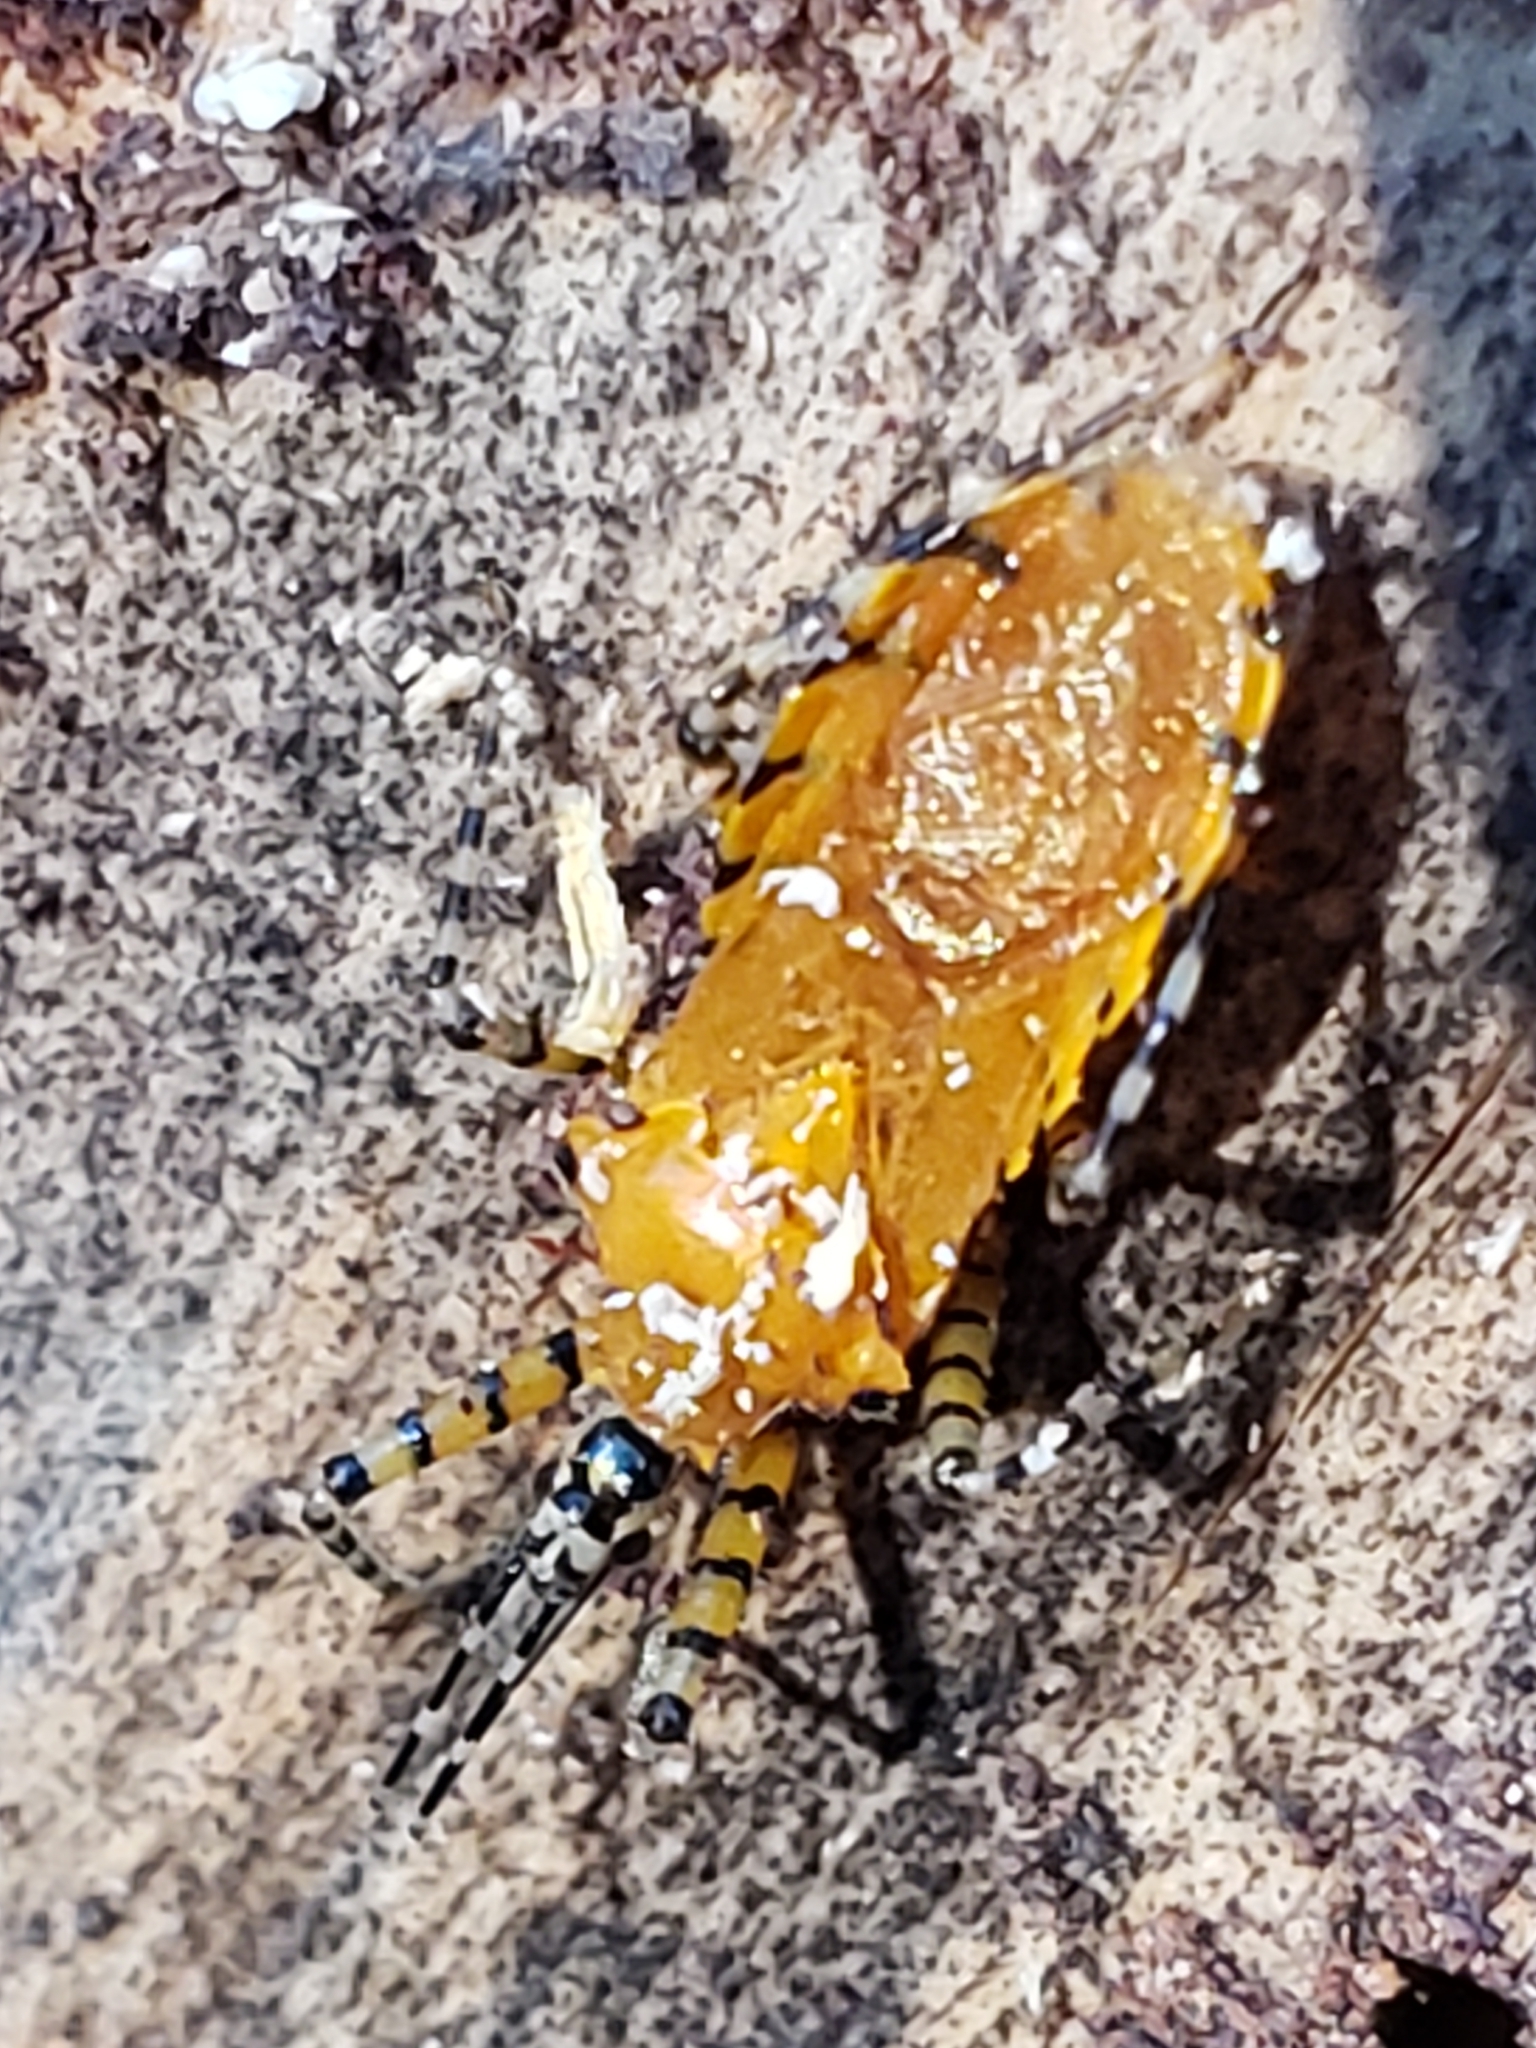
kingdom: Animalia
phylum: Arthropoda
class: Insecta
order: Hemiptera
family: Reduviidae
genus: Pselliopus
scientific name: Pselliopus barberi
